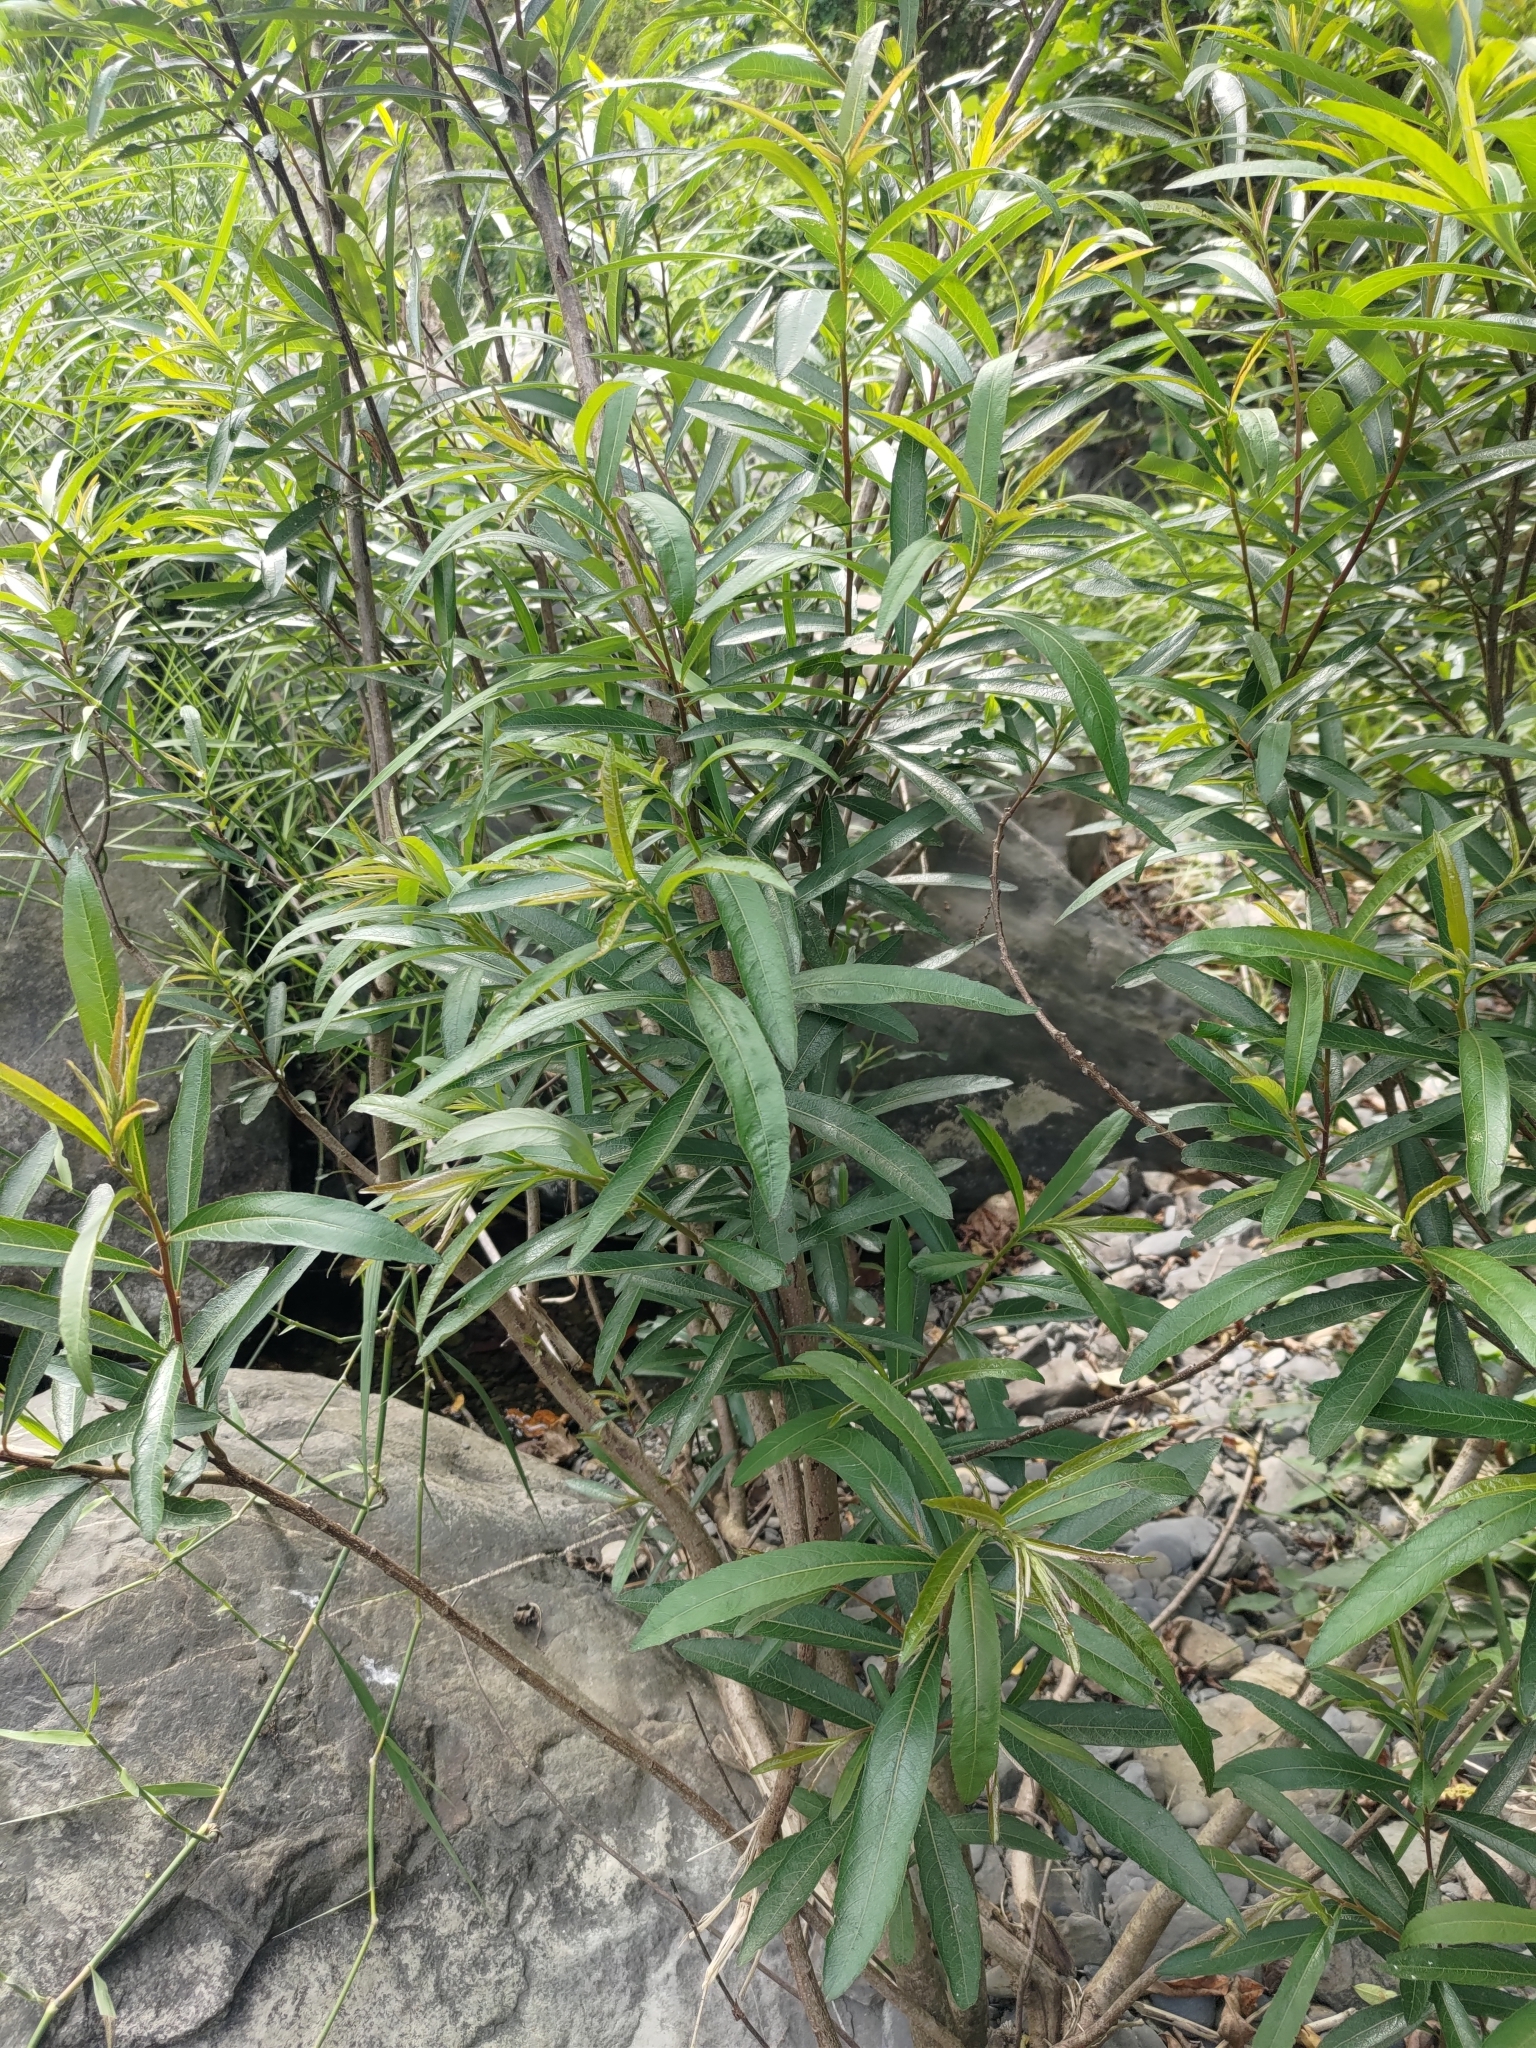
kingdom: Plantae
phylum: Tracheophyta
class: Magnoliopsida
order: Malpighiales
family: Euphorbiaceae
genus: Homonoia
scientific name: Homonoia riparia
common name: Willow-leaved water croton
